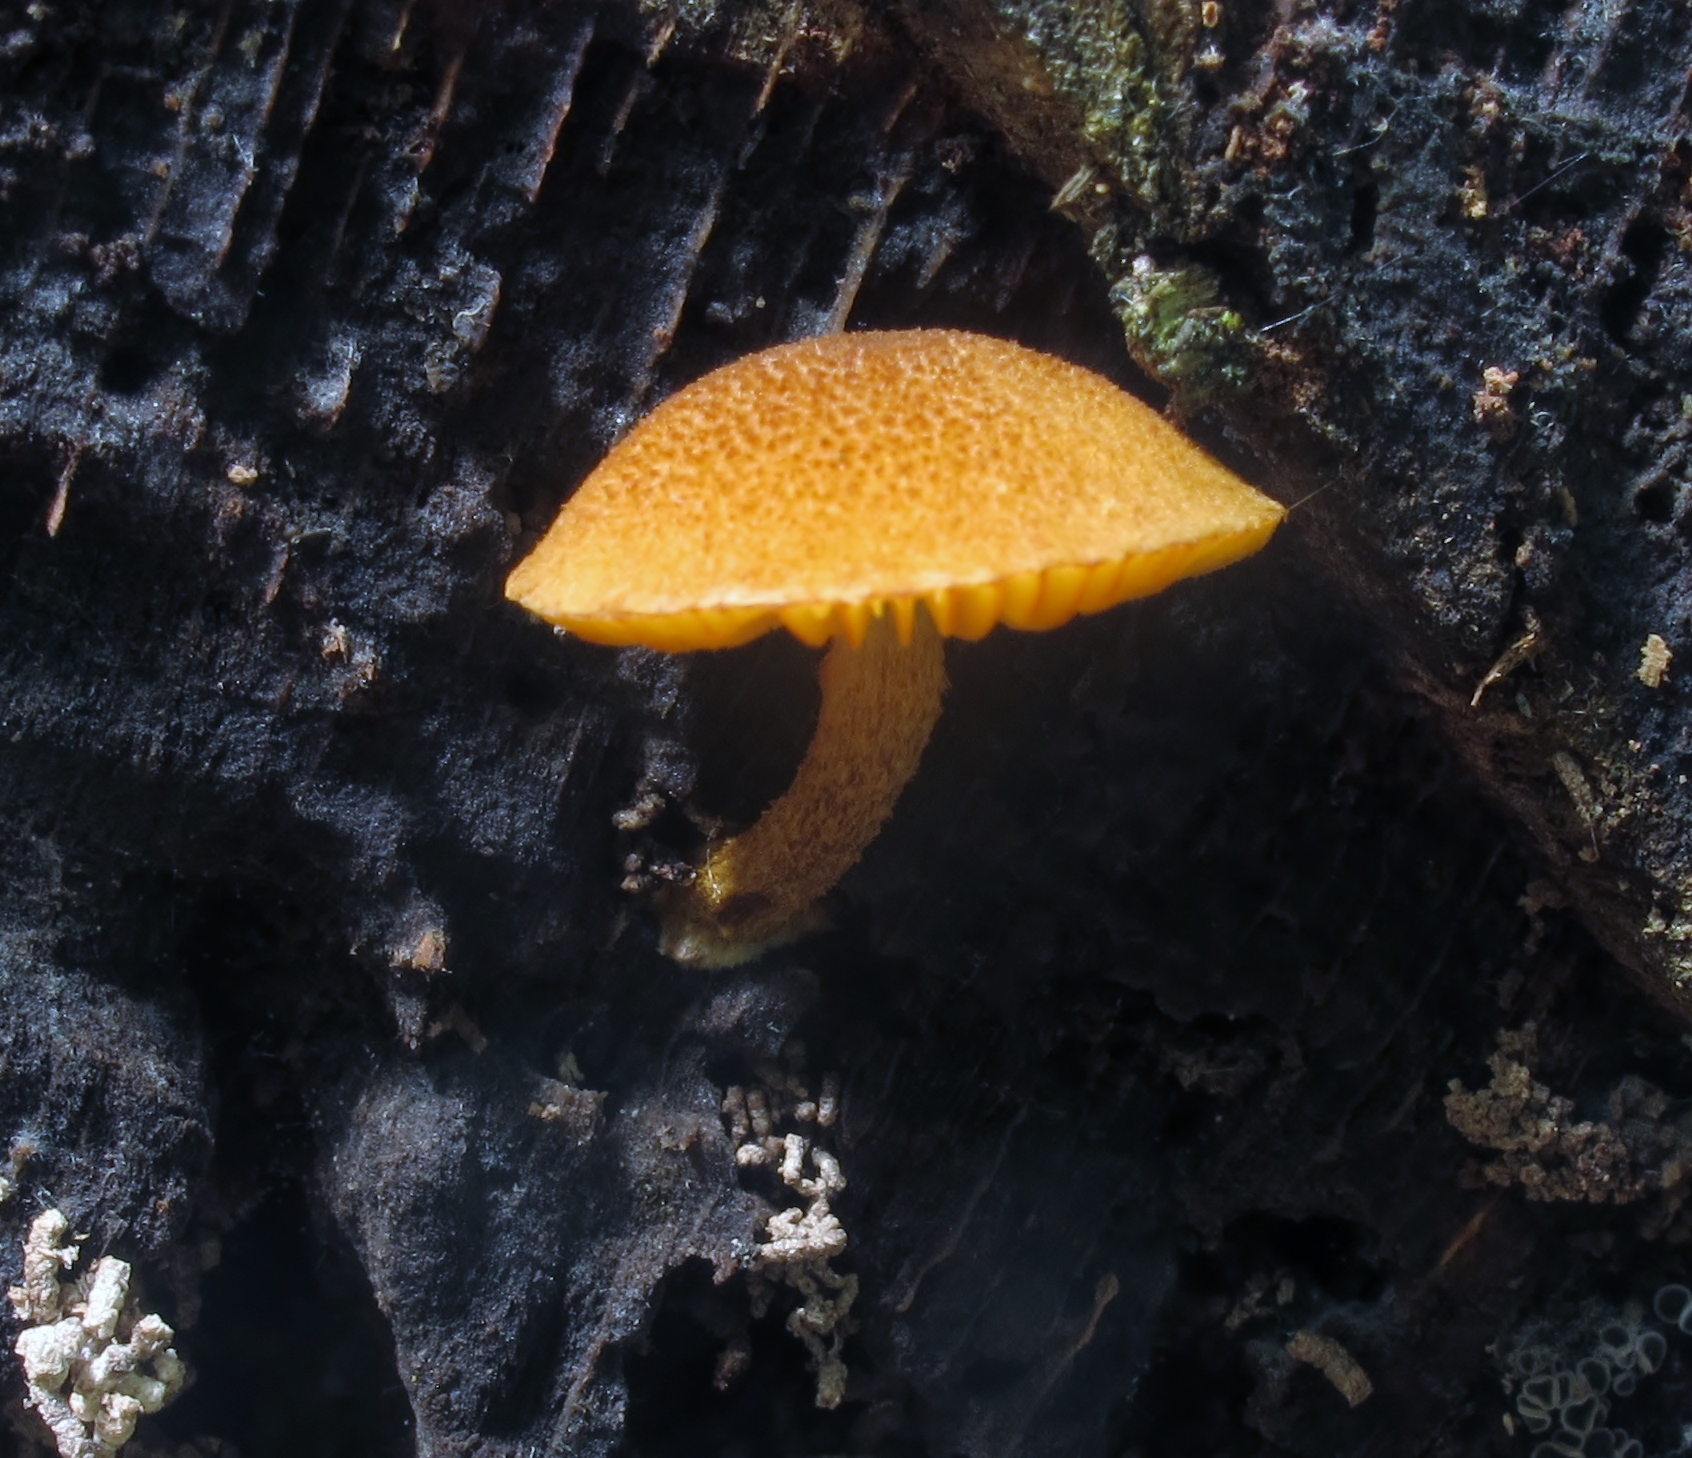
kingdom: Fungi
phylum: Basidiomycota
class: Agaricomycetes
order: Agaricales
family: Strophariaceae
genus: Pholiota
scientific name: Pholiota granulosa
